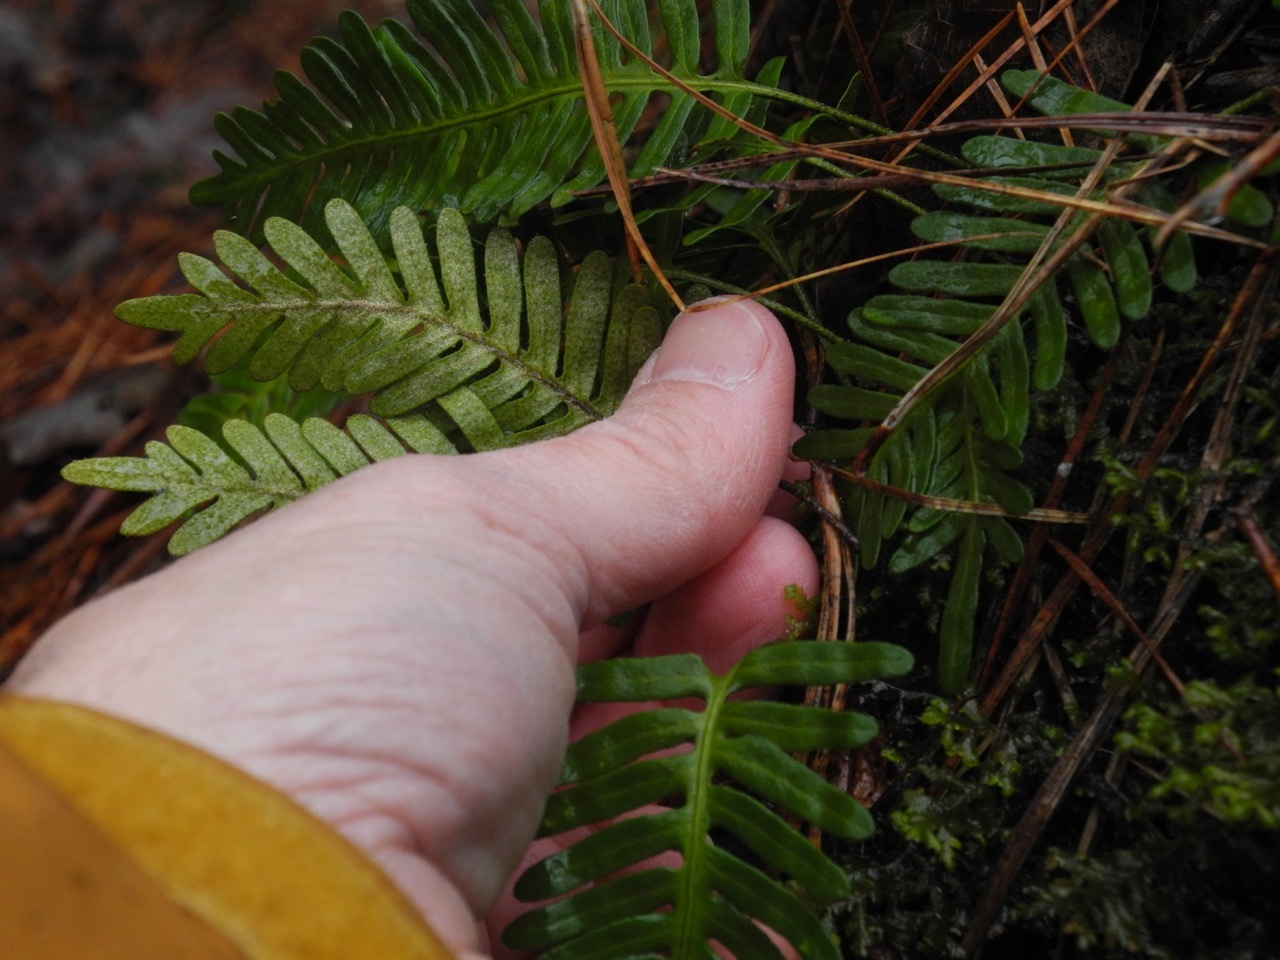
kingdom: Plantae
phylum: Tracheophyta
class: Polypodiopsida
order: Polypodiales
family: Polypodiaceae
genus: Pleopeltis
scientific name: Pleopeltis michauxiana
